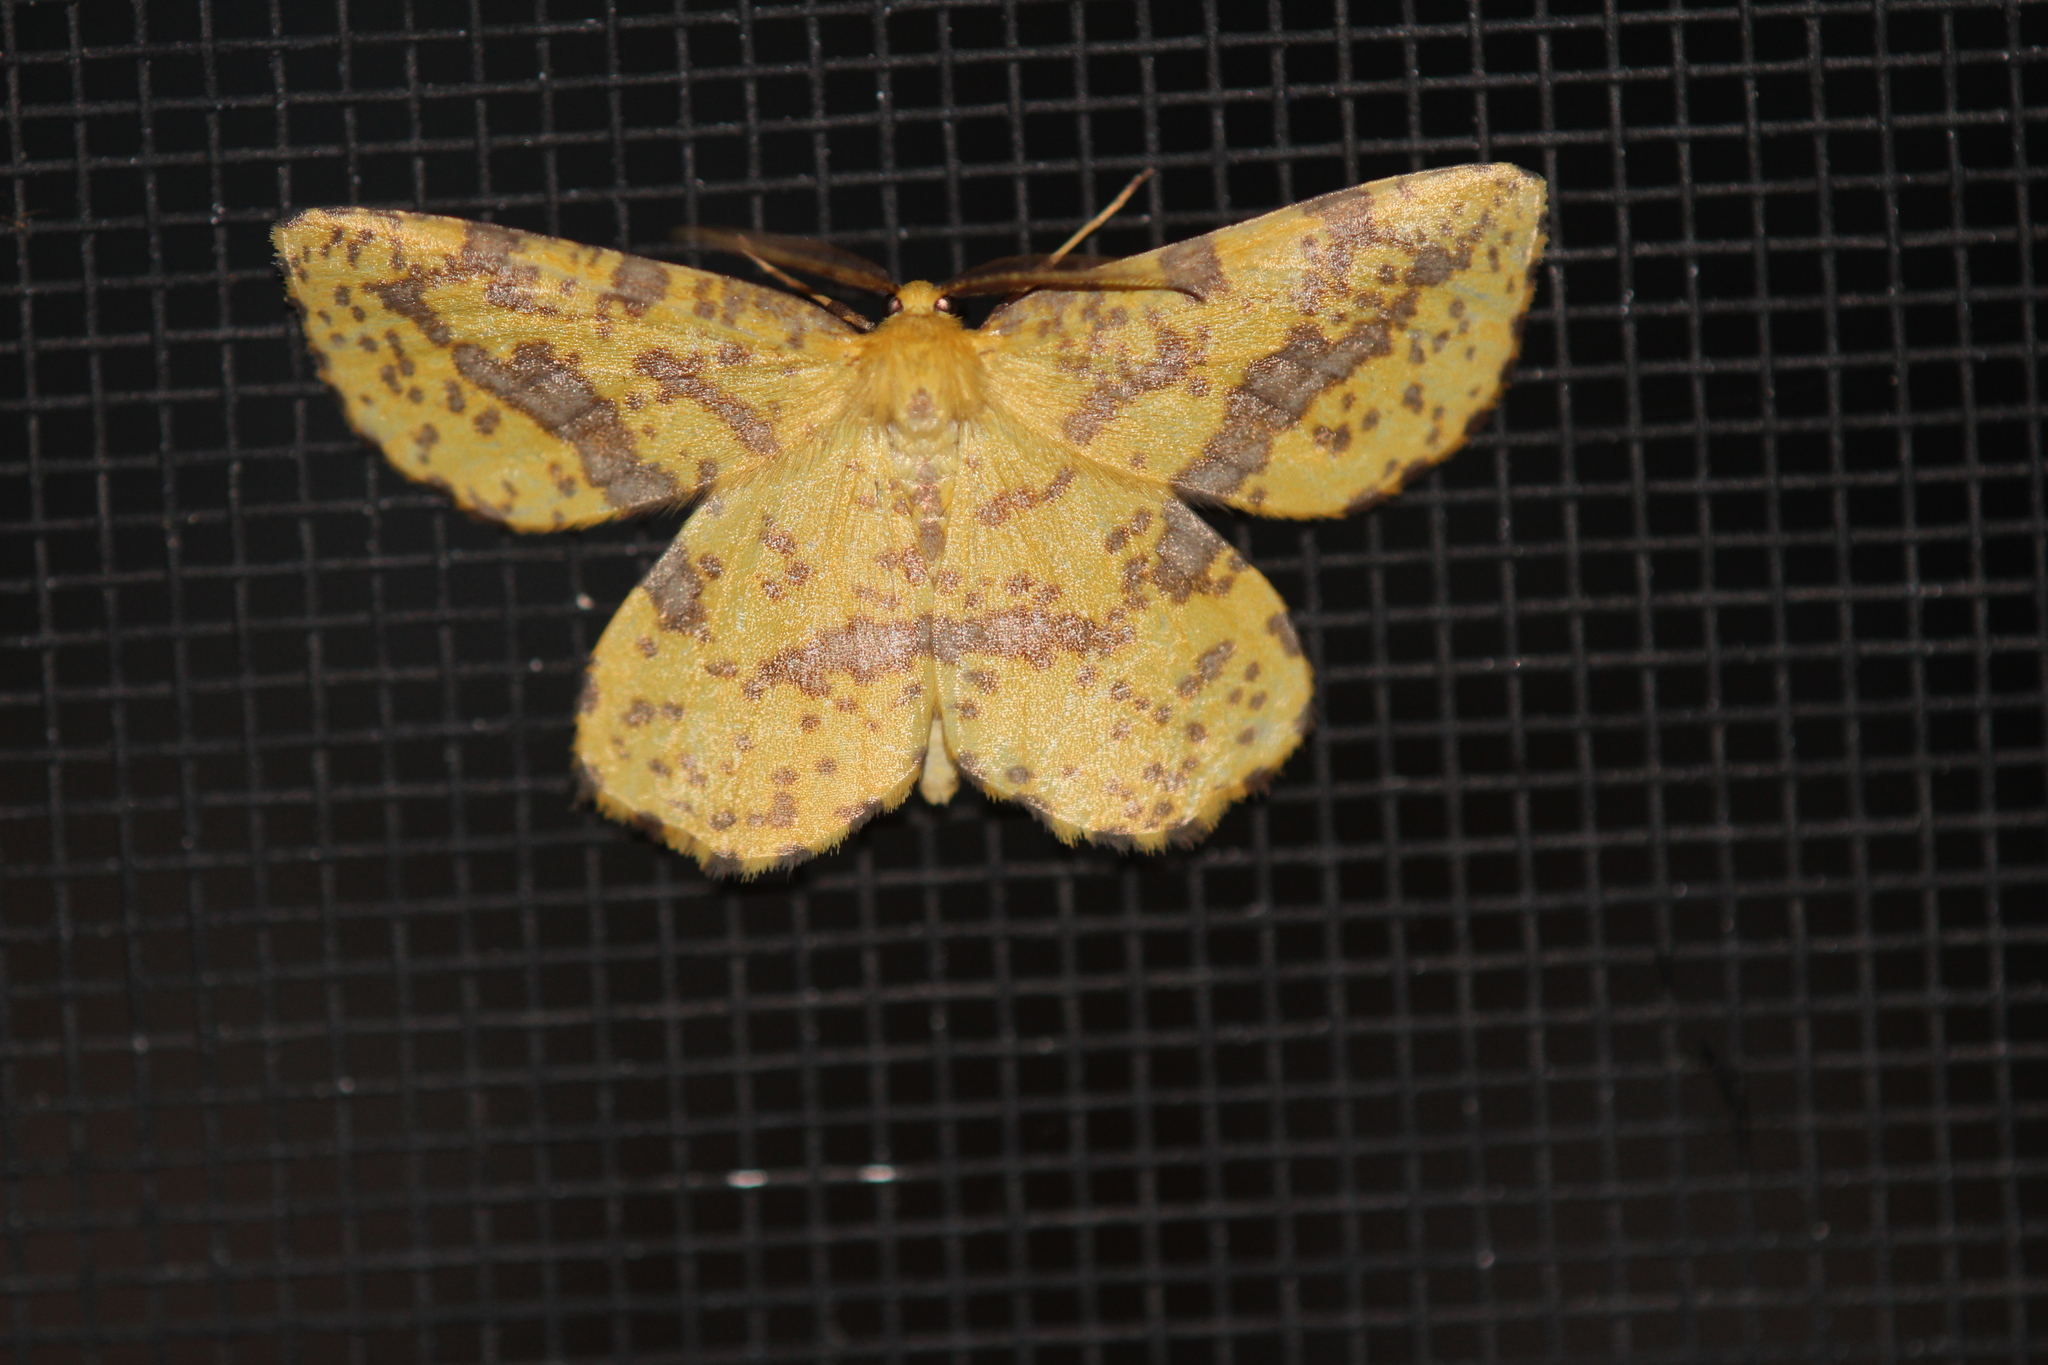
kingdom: Animalia
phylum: Arthropoda
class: Insecta
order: Lepidoptera
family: Geometridae
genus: Xanthotype
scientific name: Xanthotype
